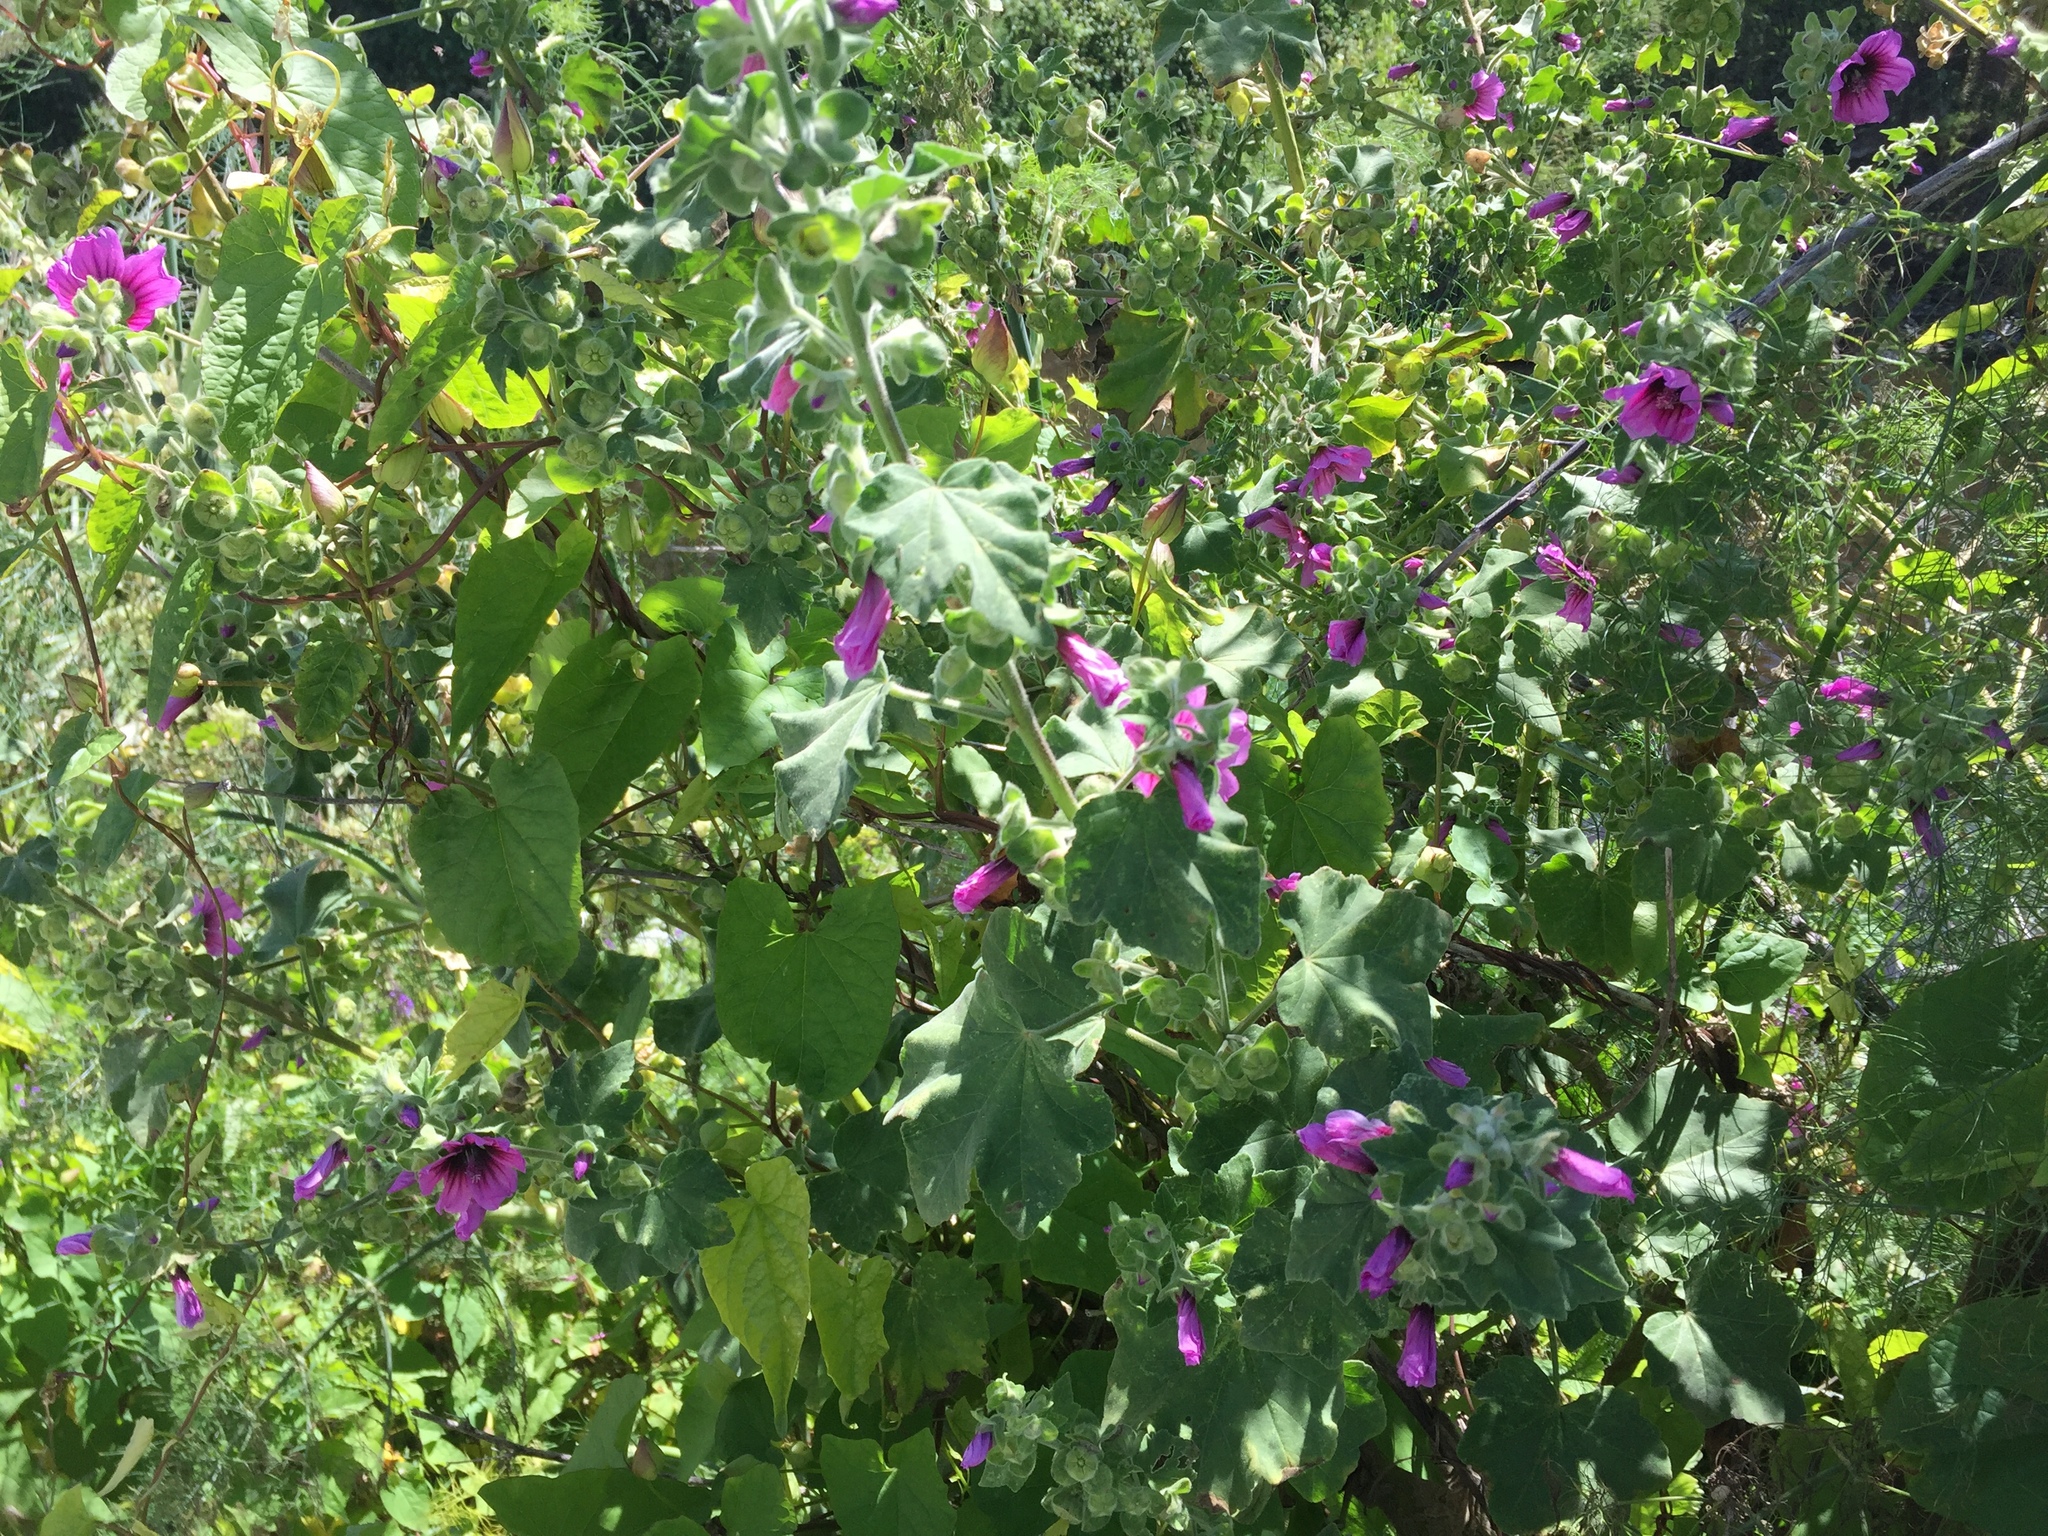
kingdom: Plantae
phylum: Tracheophyta
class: Magnoliopsida
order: Malvales
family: Malvaceae
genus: Malva
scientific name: Malva arborea
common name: Tree mallow
